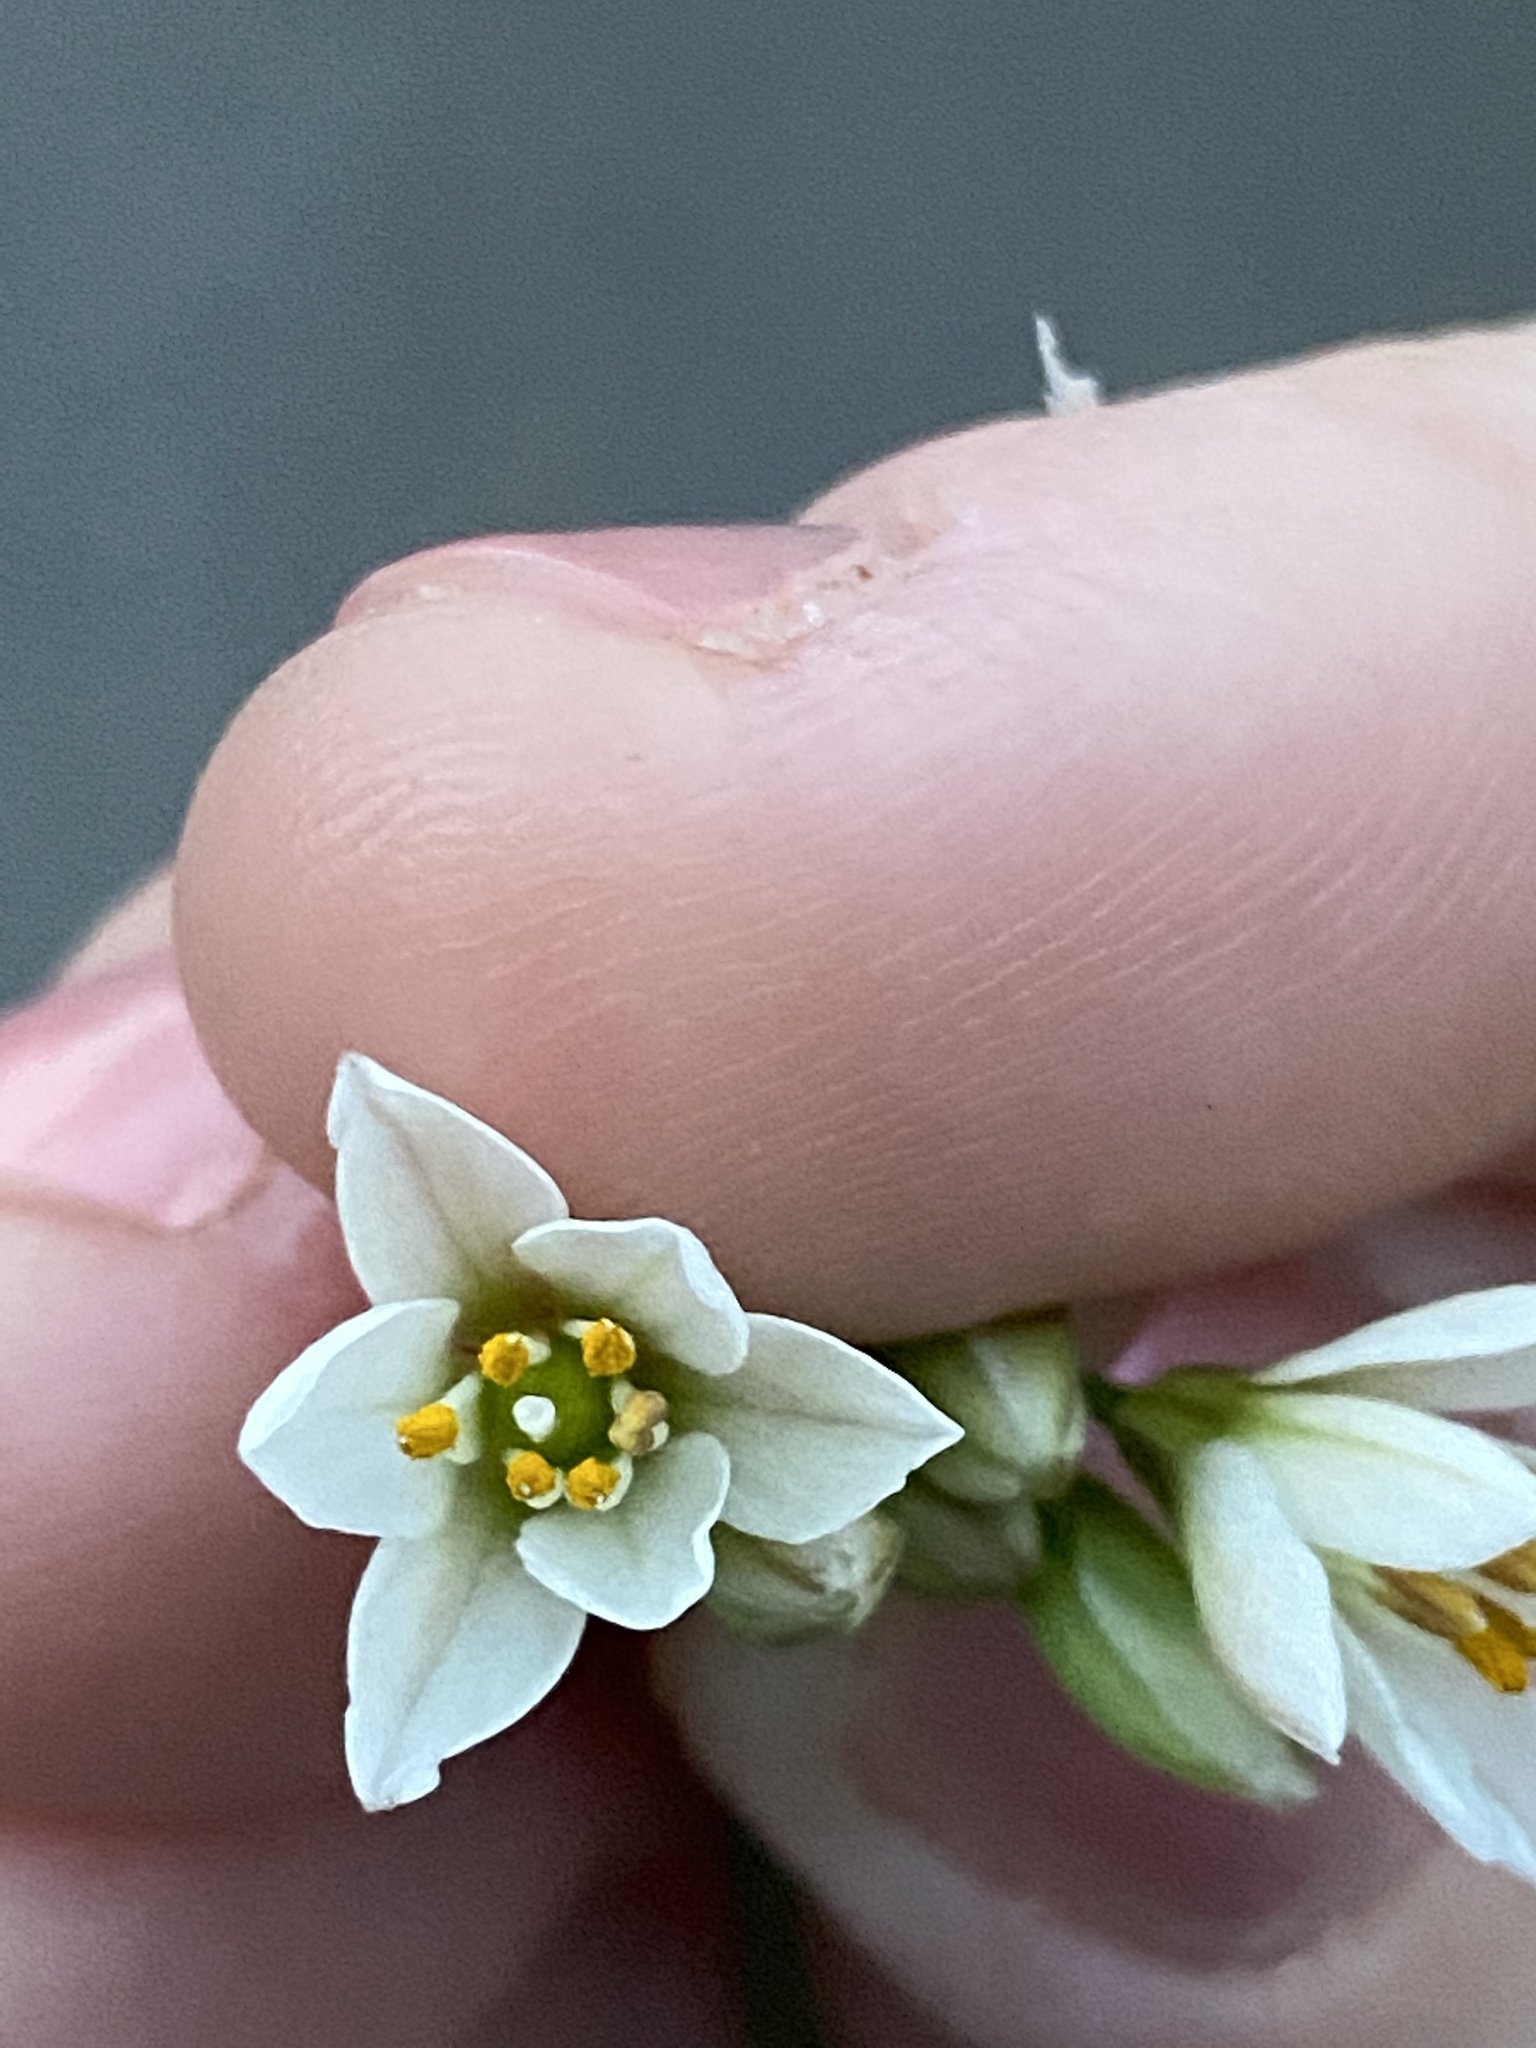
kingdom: Plantae
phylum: Tracheophyta
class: Liliopsida
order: Asparagales
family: Amaryllidaceae
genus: Nothoscordum
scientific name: Nothoscordum bivalve
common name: Crow-poison
